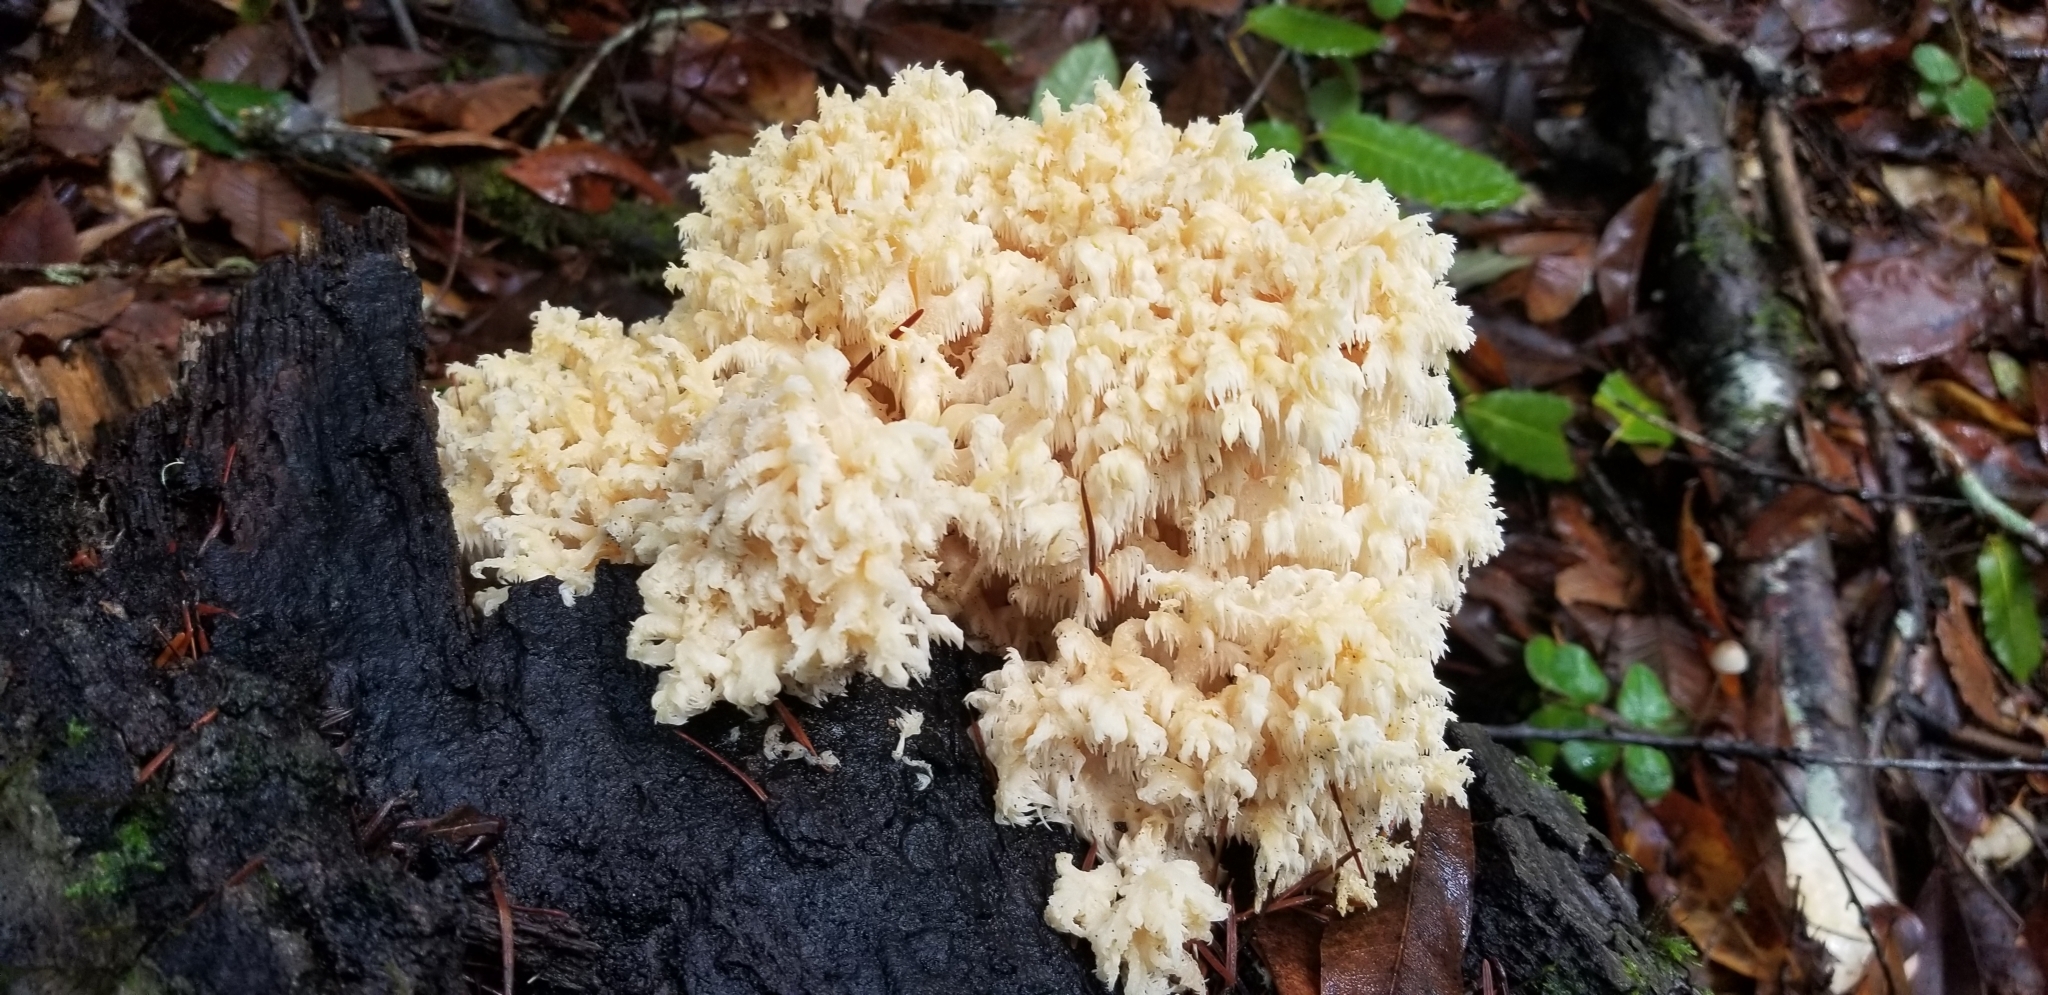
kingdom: Fungi
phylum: Basidiomycota
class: Agaricomycetes
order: Russulales
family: Hericiaceae
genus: Hericium
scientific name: Hericium abietis
